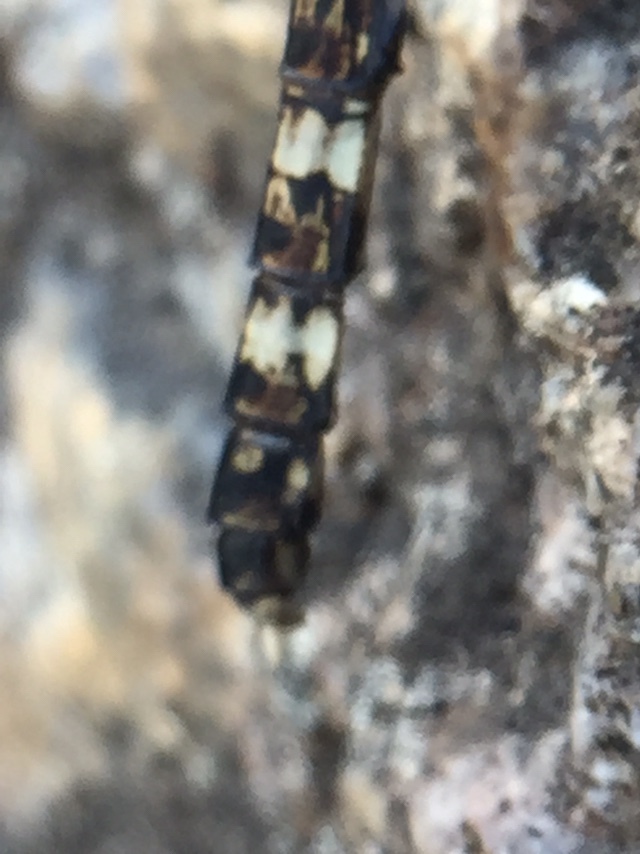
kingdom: Animalia
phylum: Arthropoda
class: Insecta
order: Odonata
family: Libellulidae
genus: Bradinopyga
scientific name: Bradinopyga geminata
